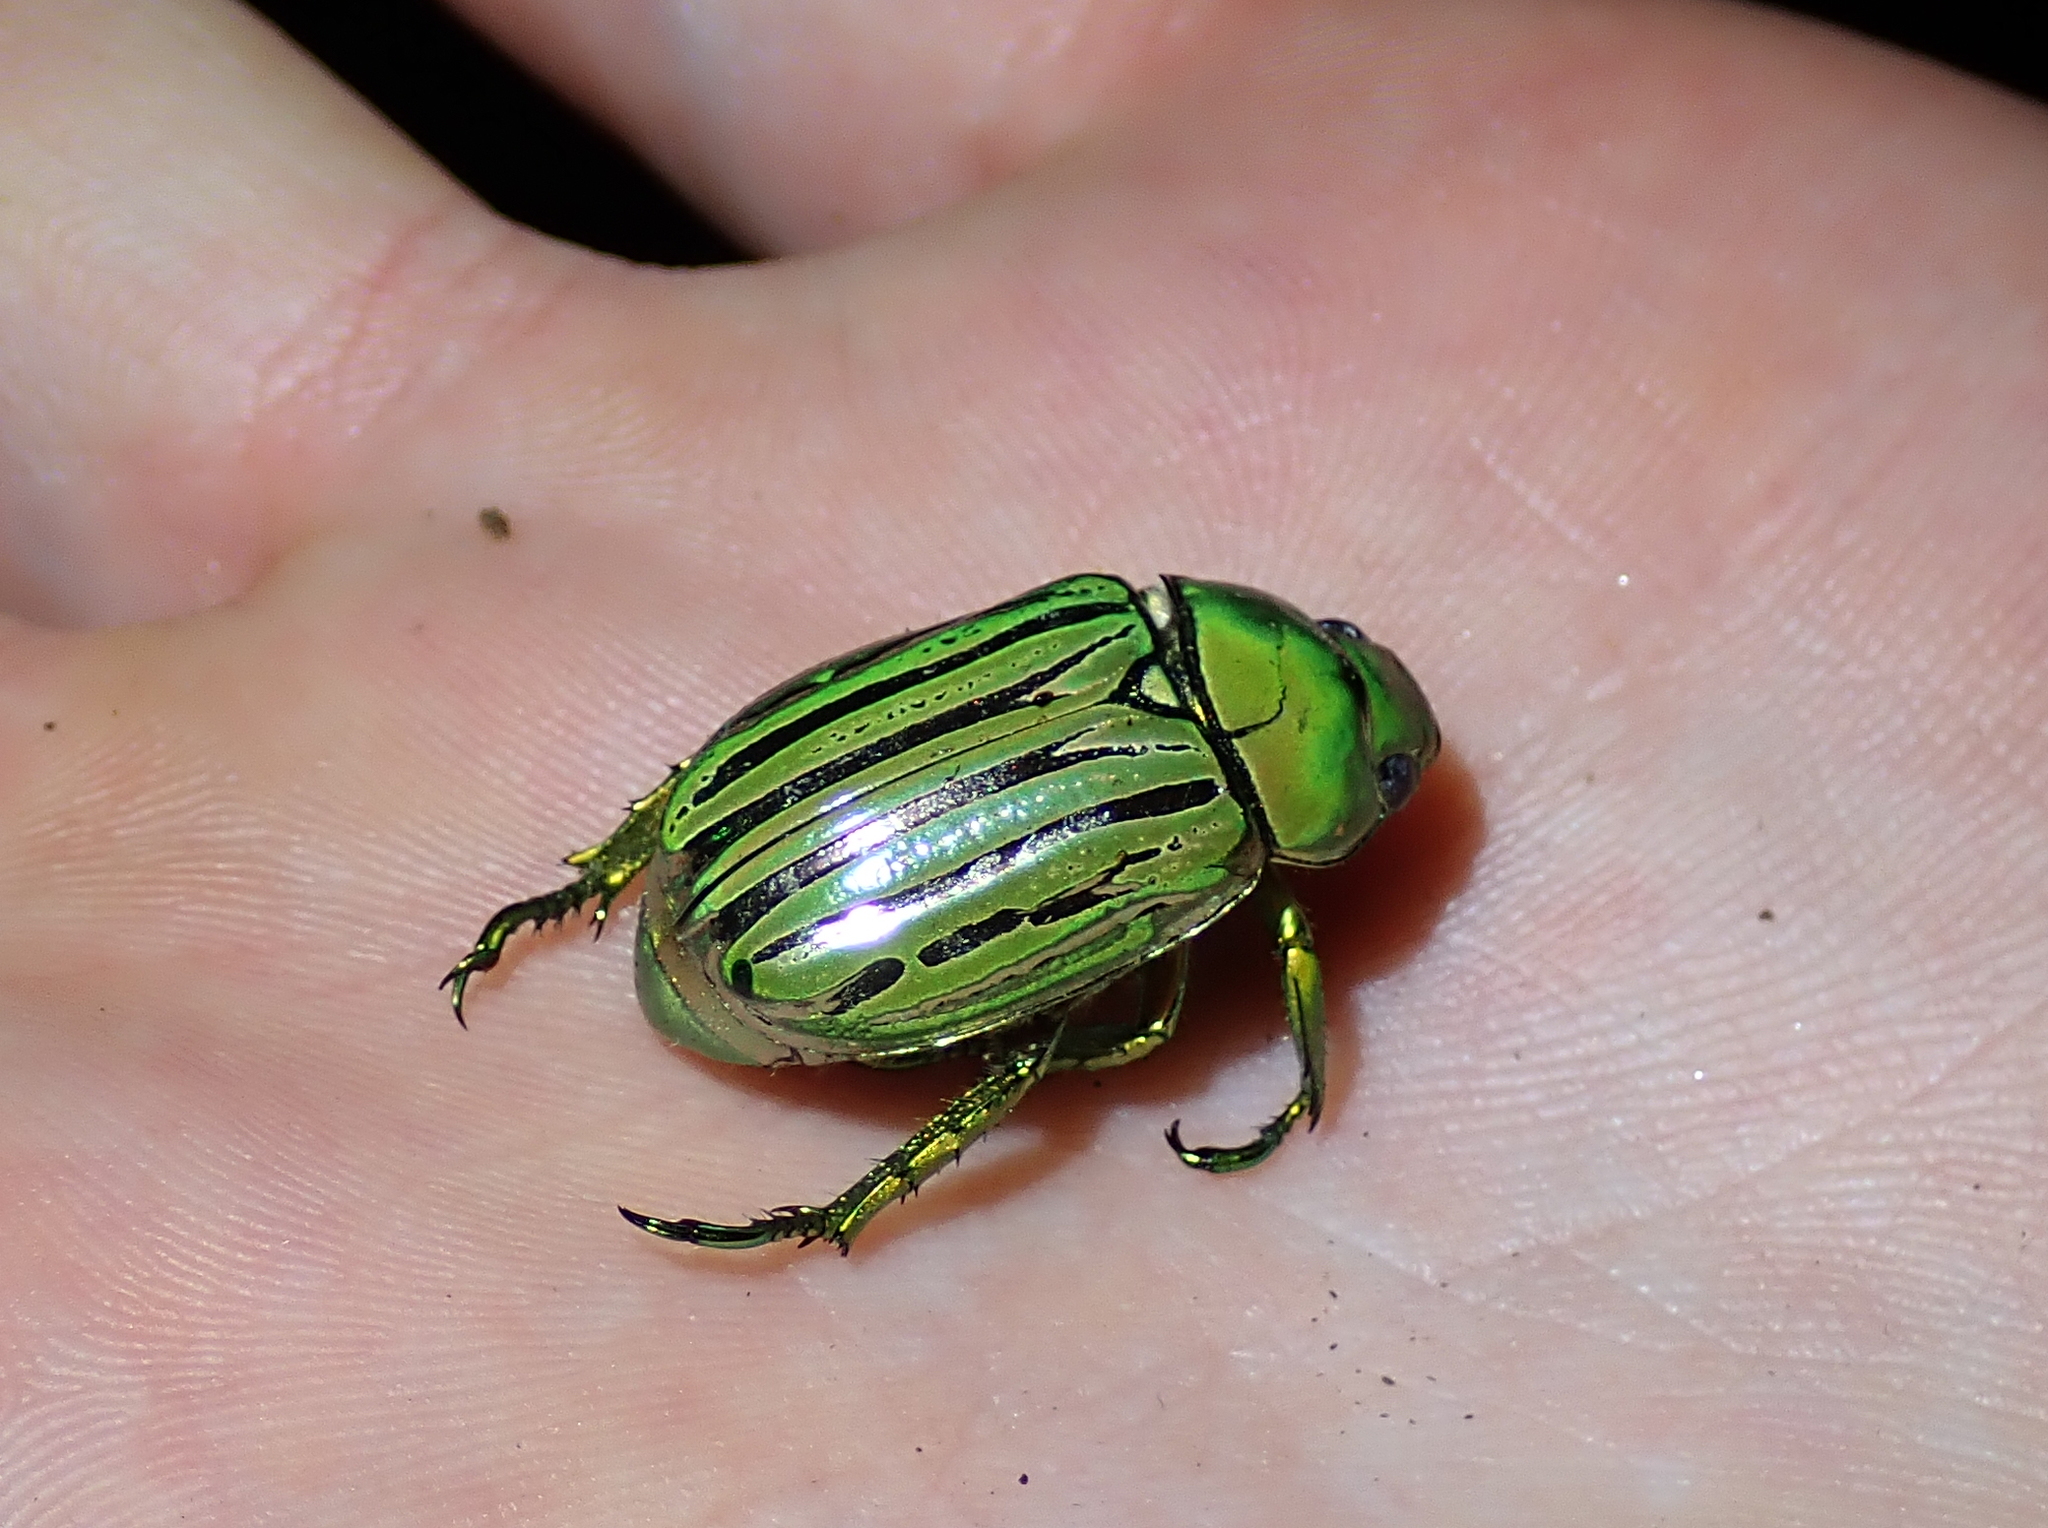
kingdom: Animalia
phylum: Arthropoda
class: Insecta
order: Coleoptera
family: Scarabaeidae
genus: Chrysina
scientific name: Chrysina gloriosa
